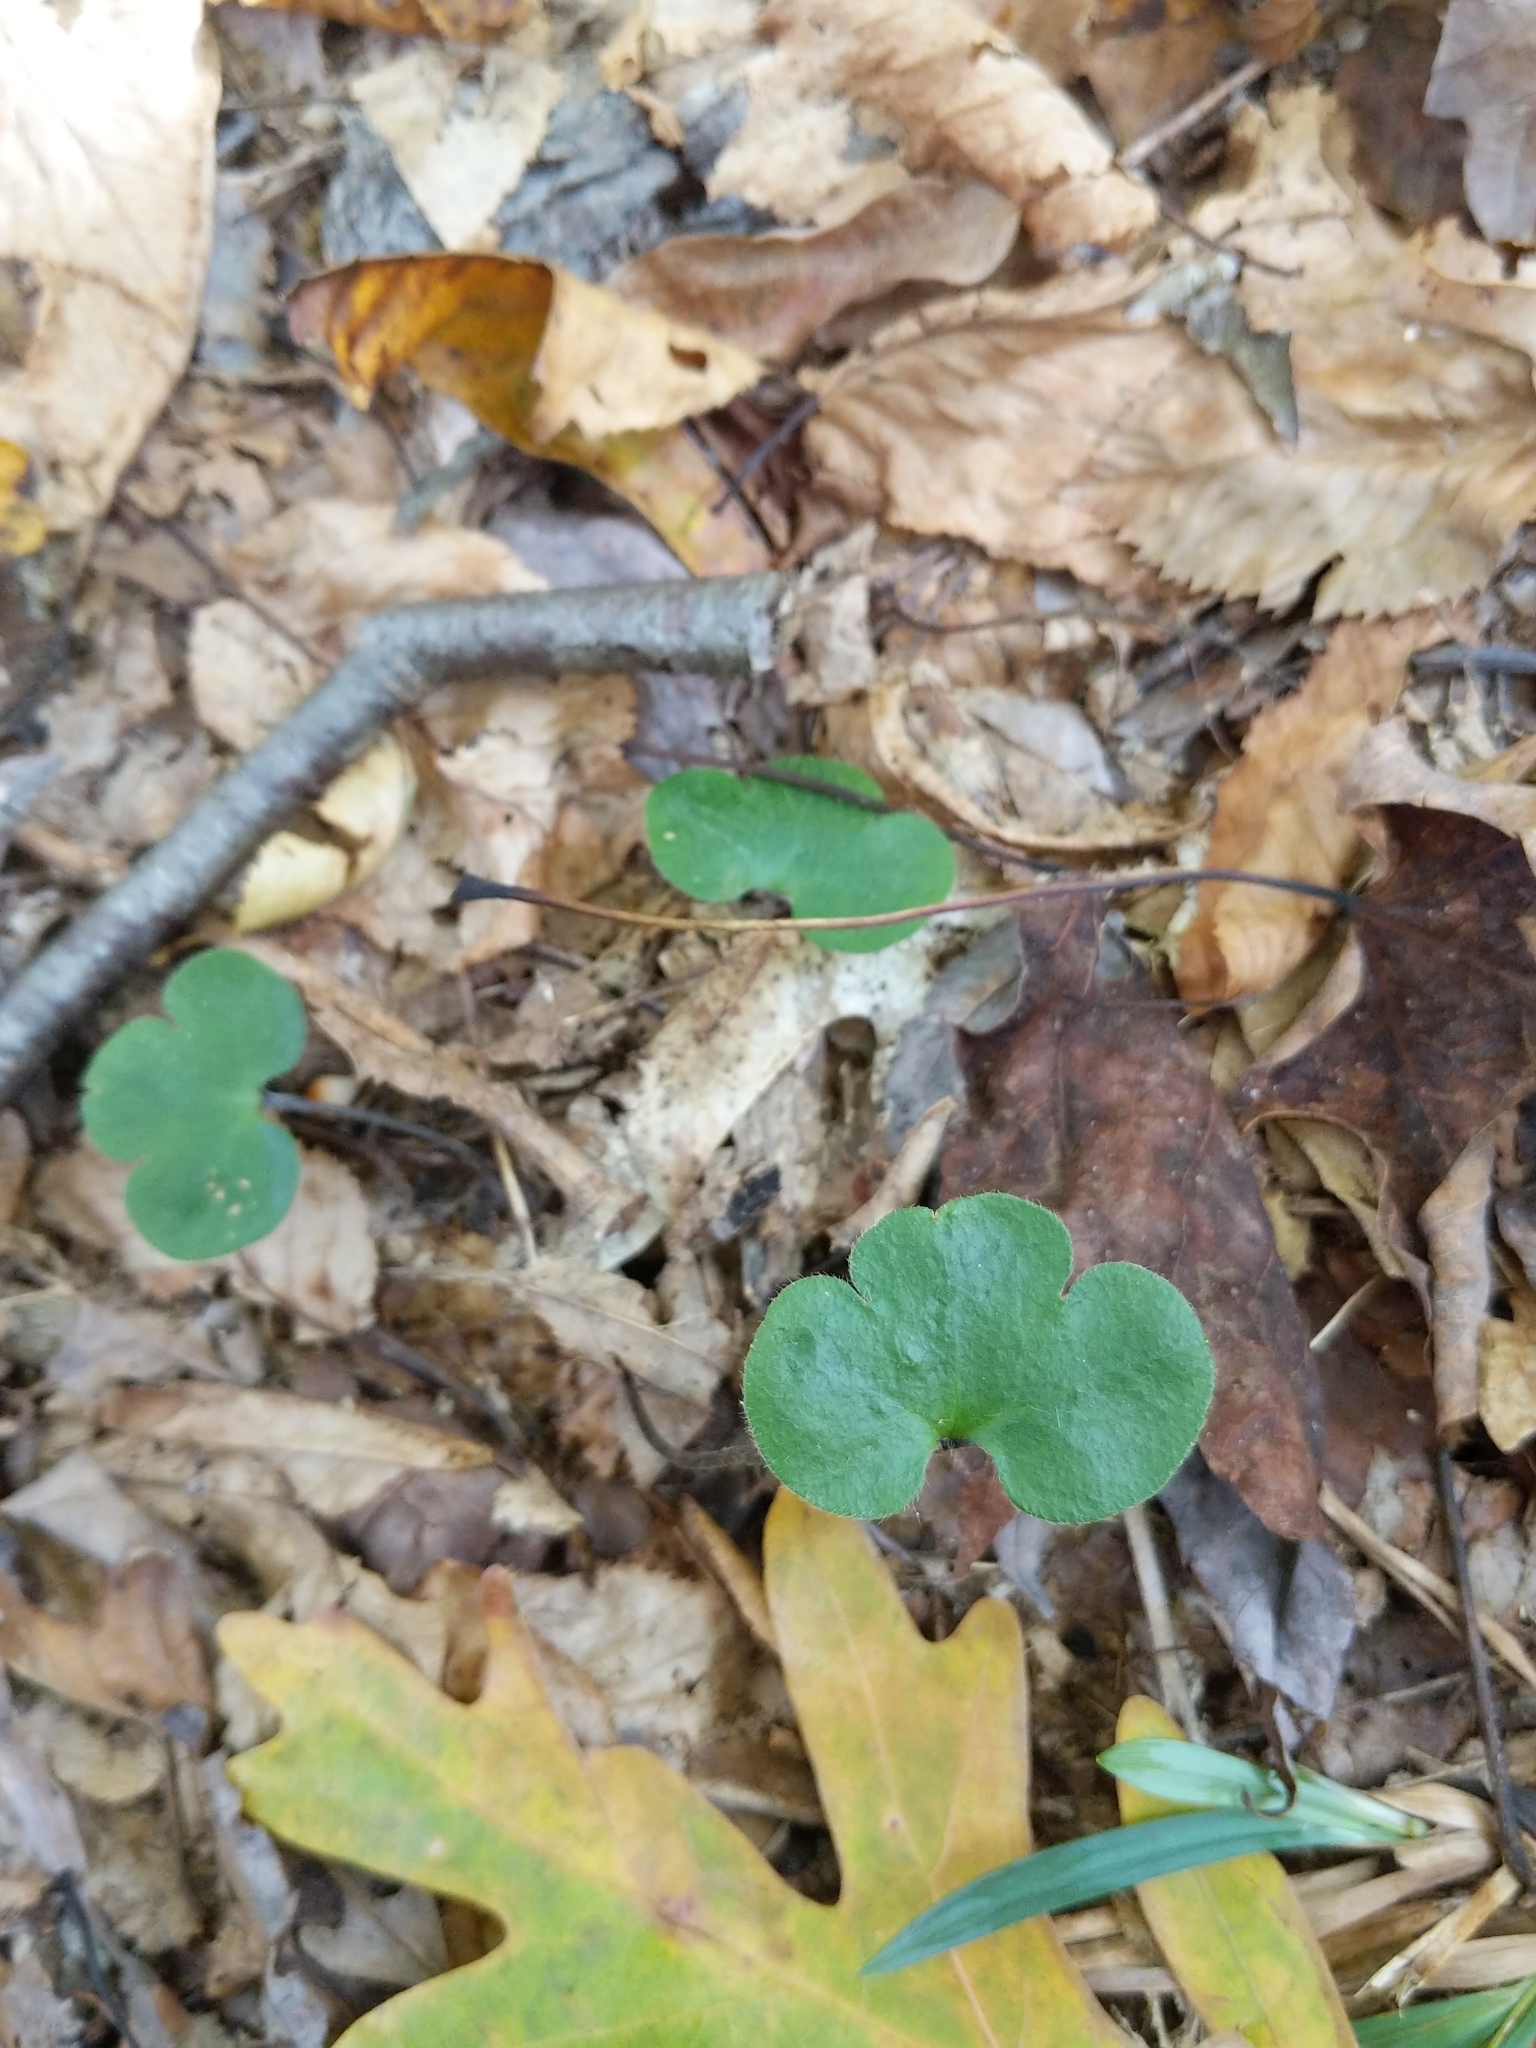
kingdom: Plantae
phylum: Tracheophyta
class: Magnoliopsida
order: Ranunculales
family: Ranunculaceae
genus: Hepatica
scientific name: Hepatica americana
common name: American hepatica
